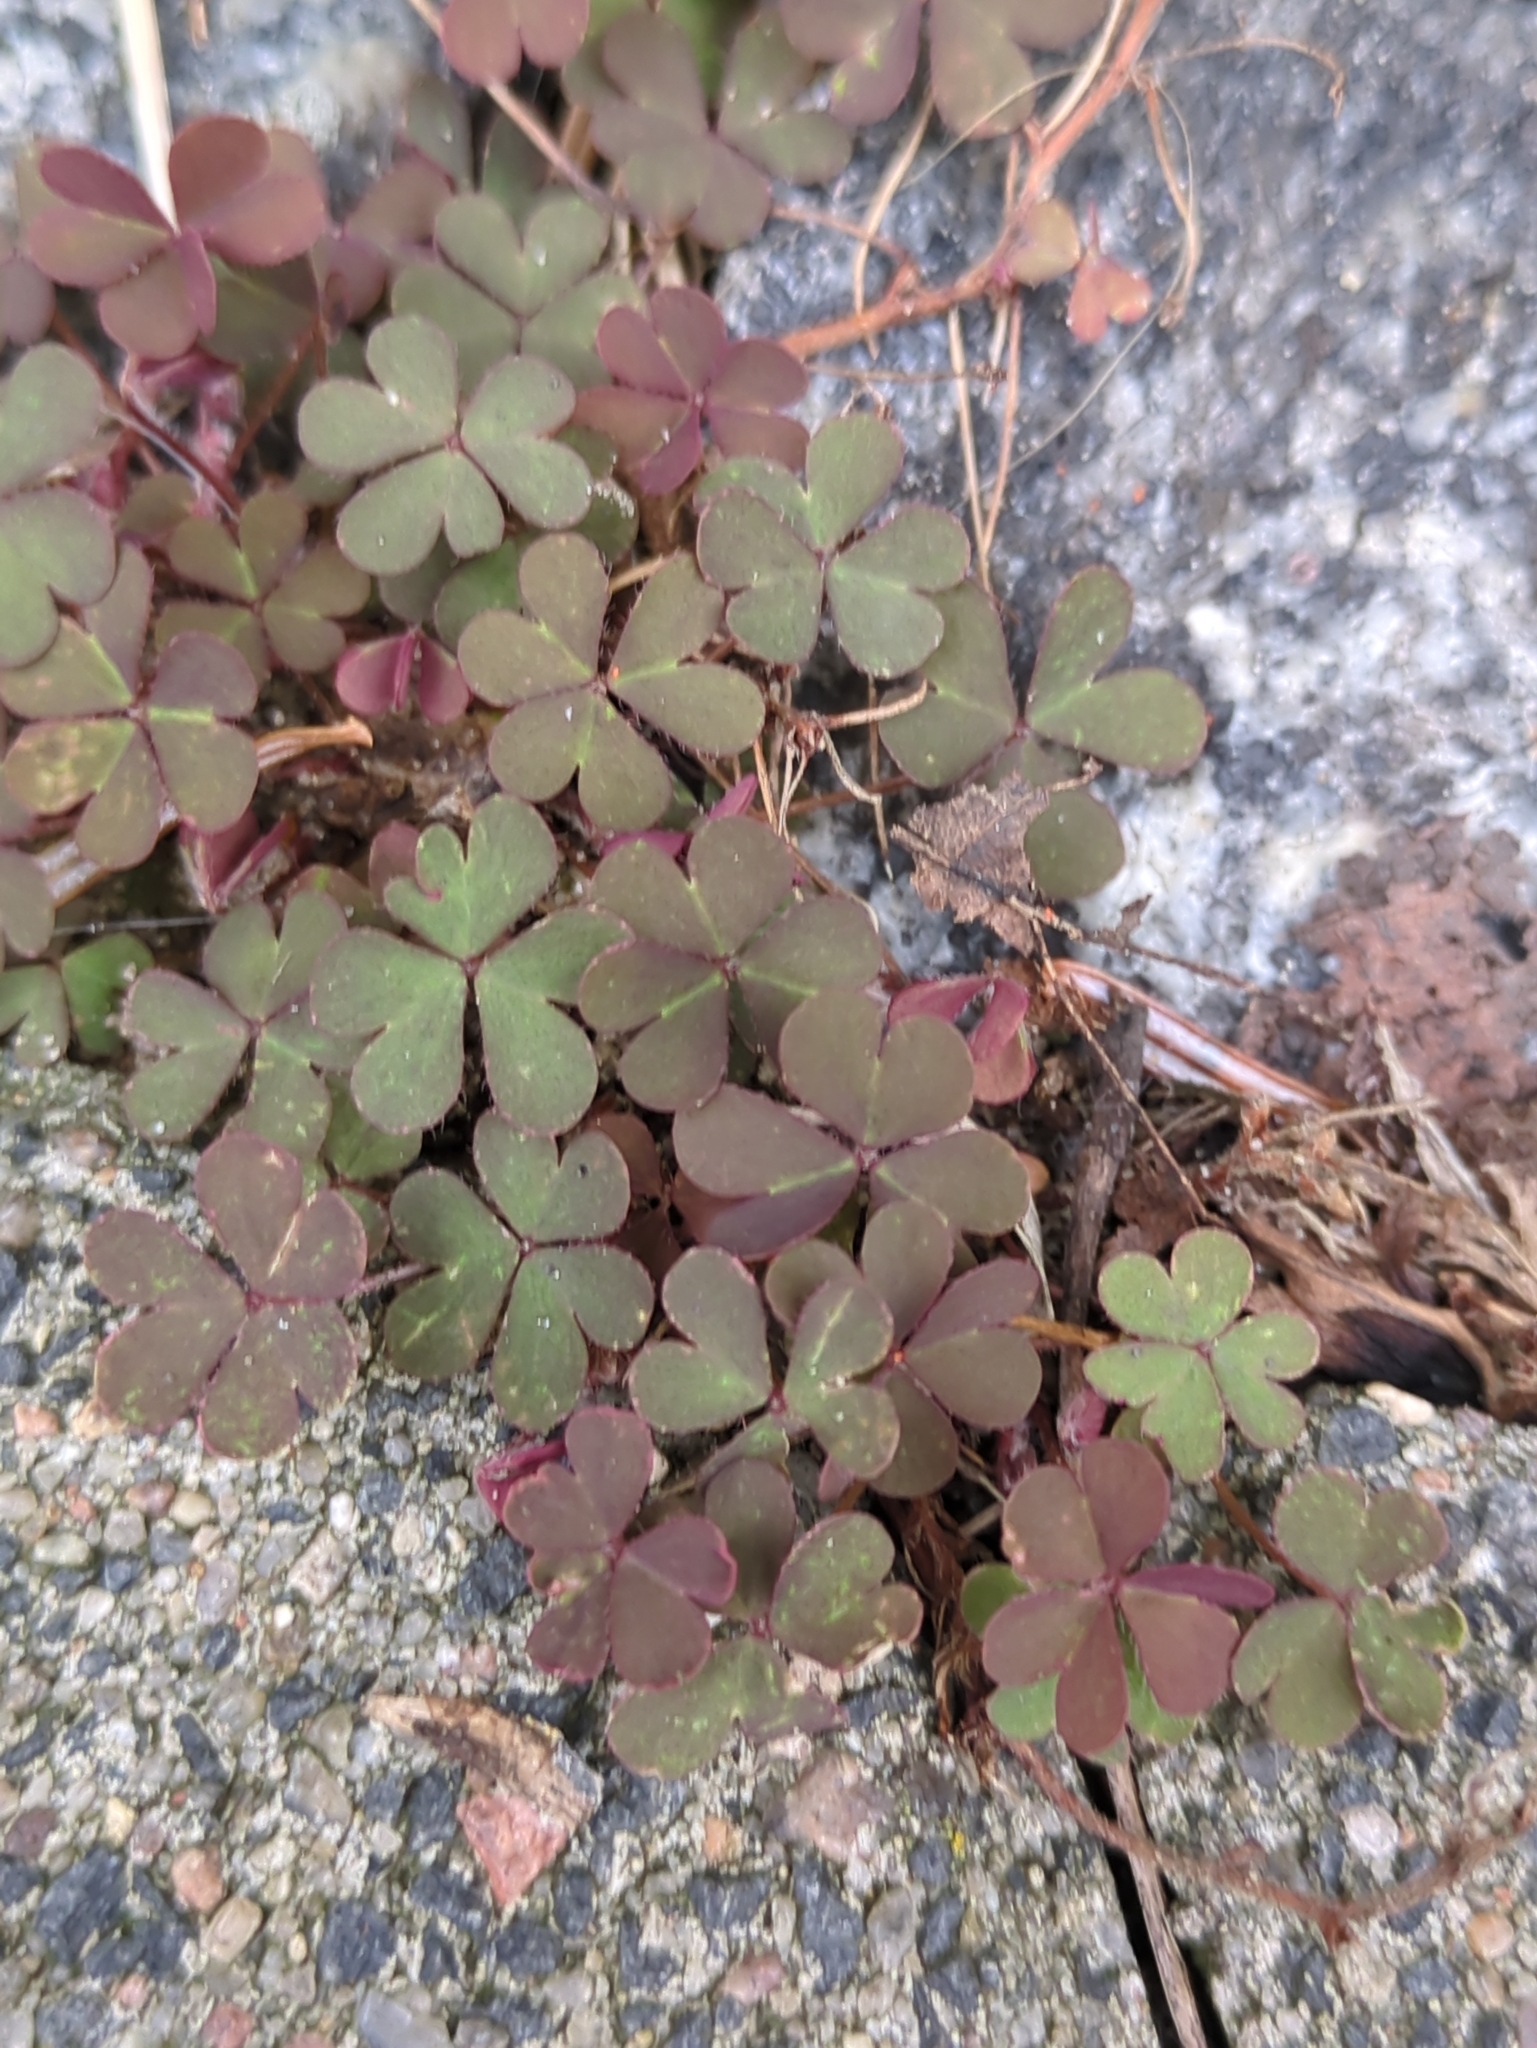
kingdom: Plantae
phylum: Tracheophyta
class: Magnoliopsida
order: Oxalidales
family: Oxalidaceae
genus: Oxalis
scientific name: Oxalis corniculata
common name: Procumbent yellow-sorrel
